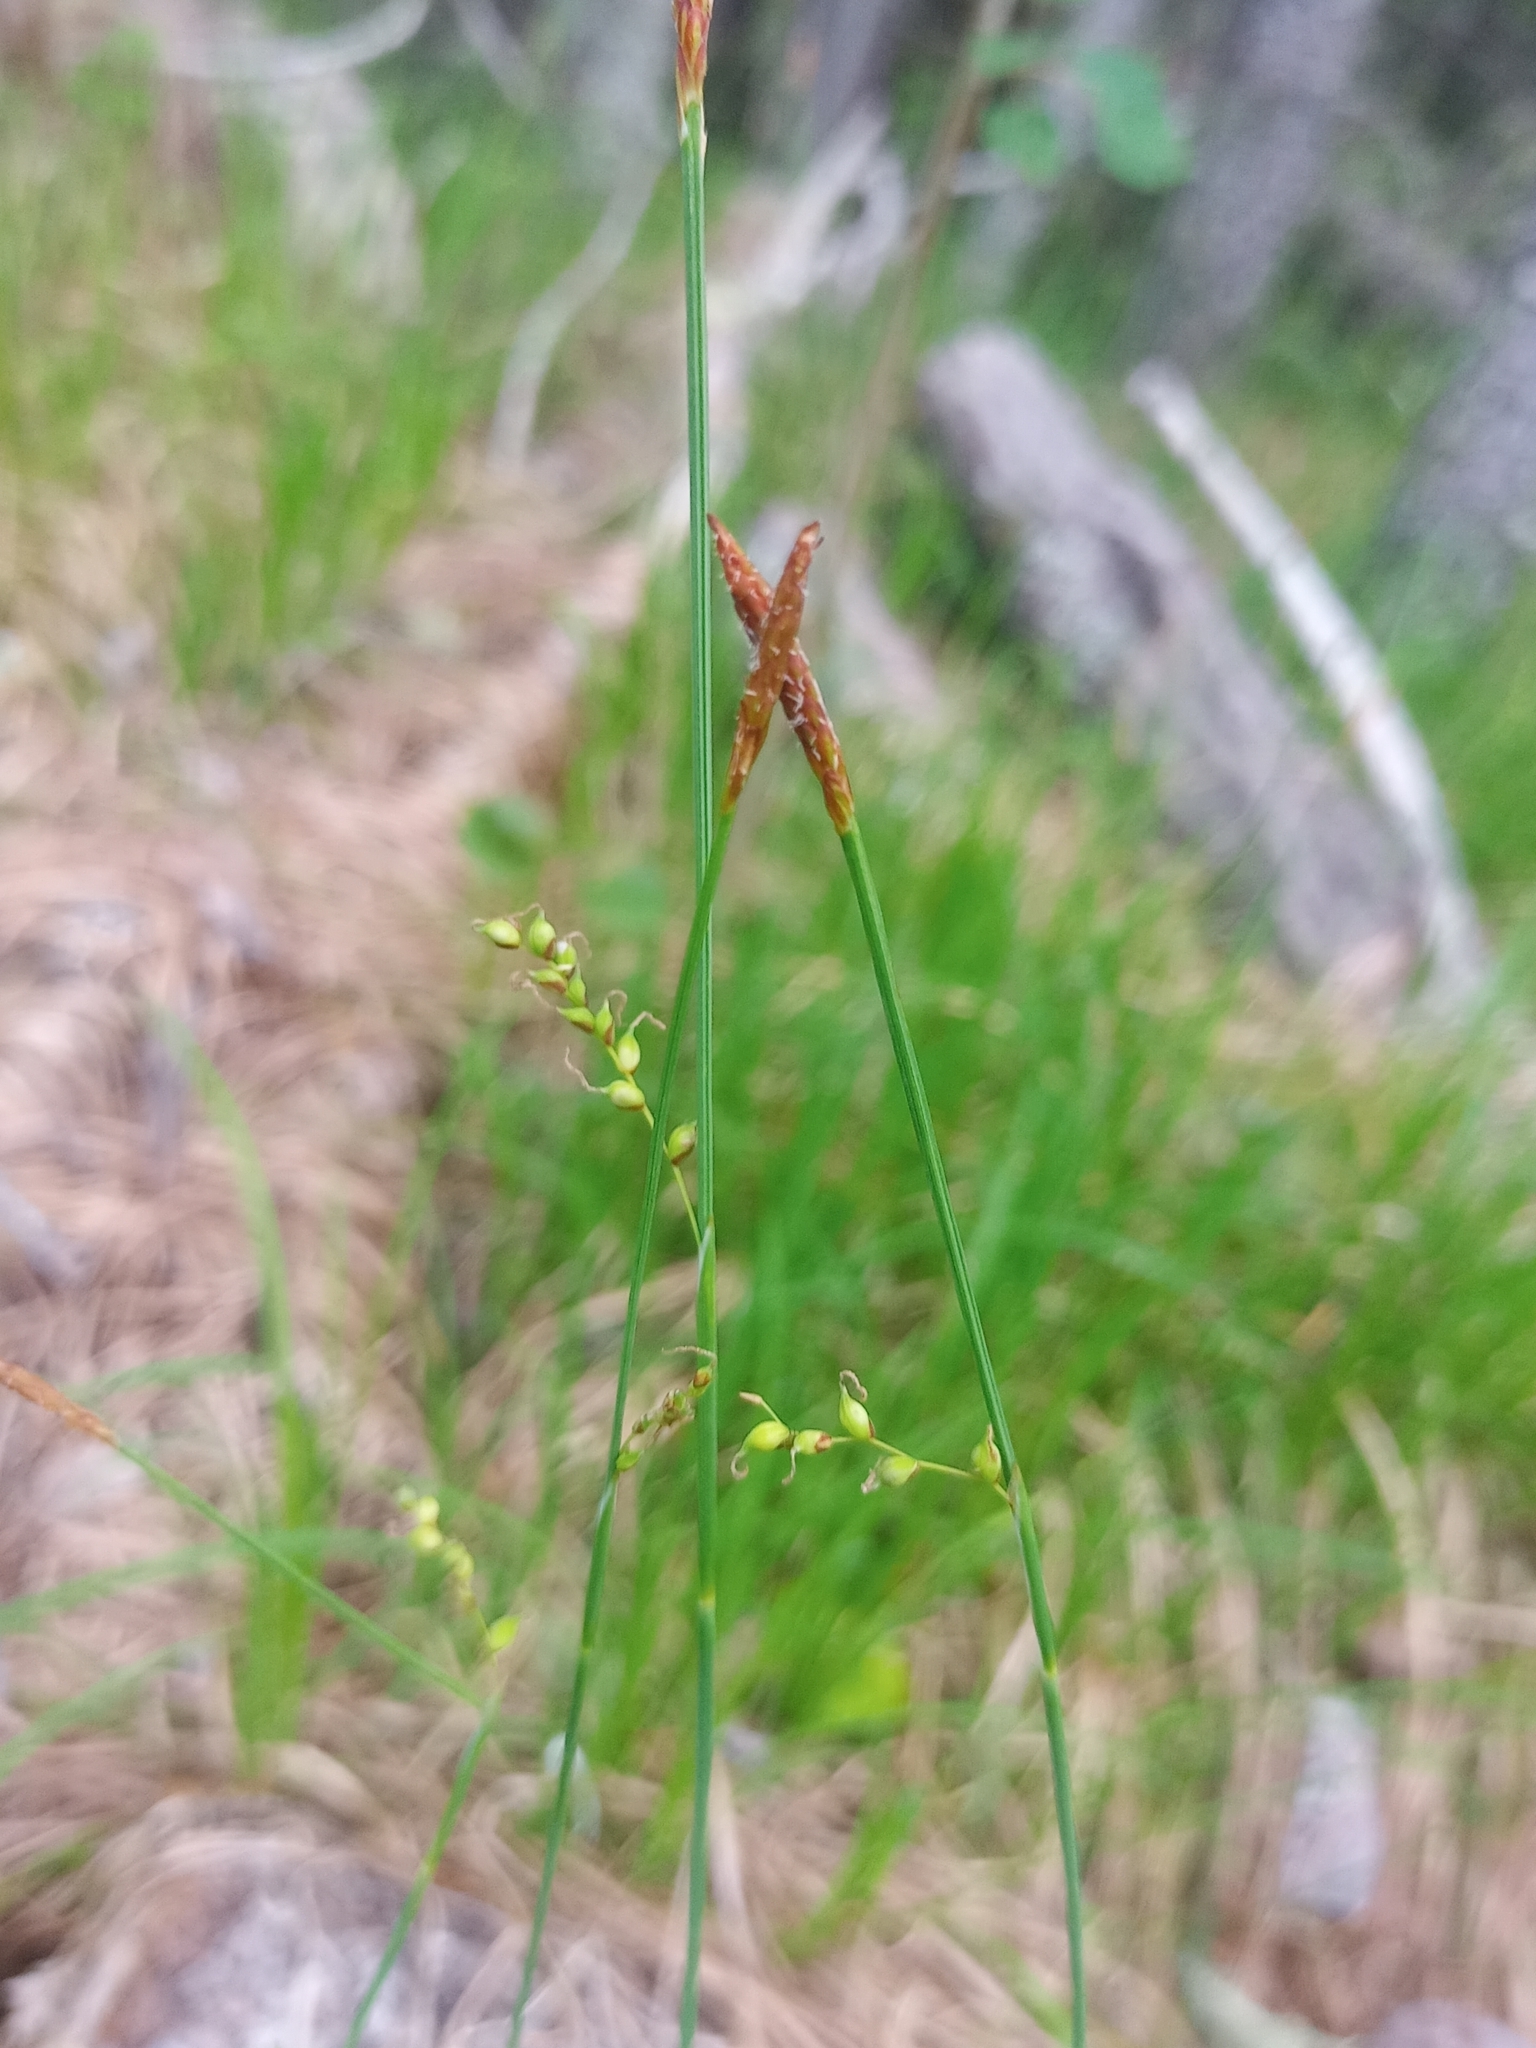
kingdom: Plantae
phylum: Tracheophyta
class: Liliopsida
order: Poales
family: Cyperaceae
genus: Carex
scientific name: Carex vaginata
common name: Sheathed sedge
